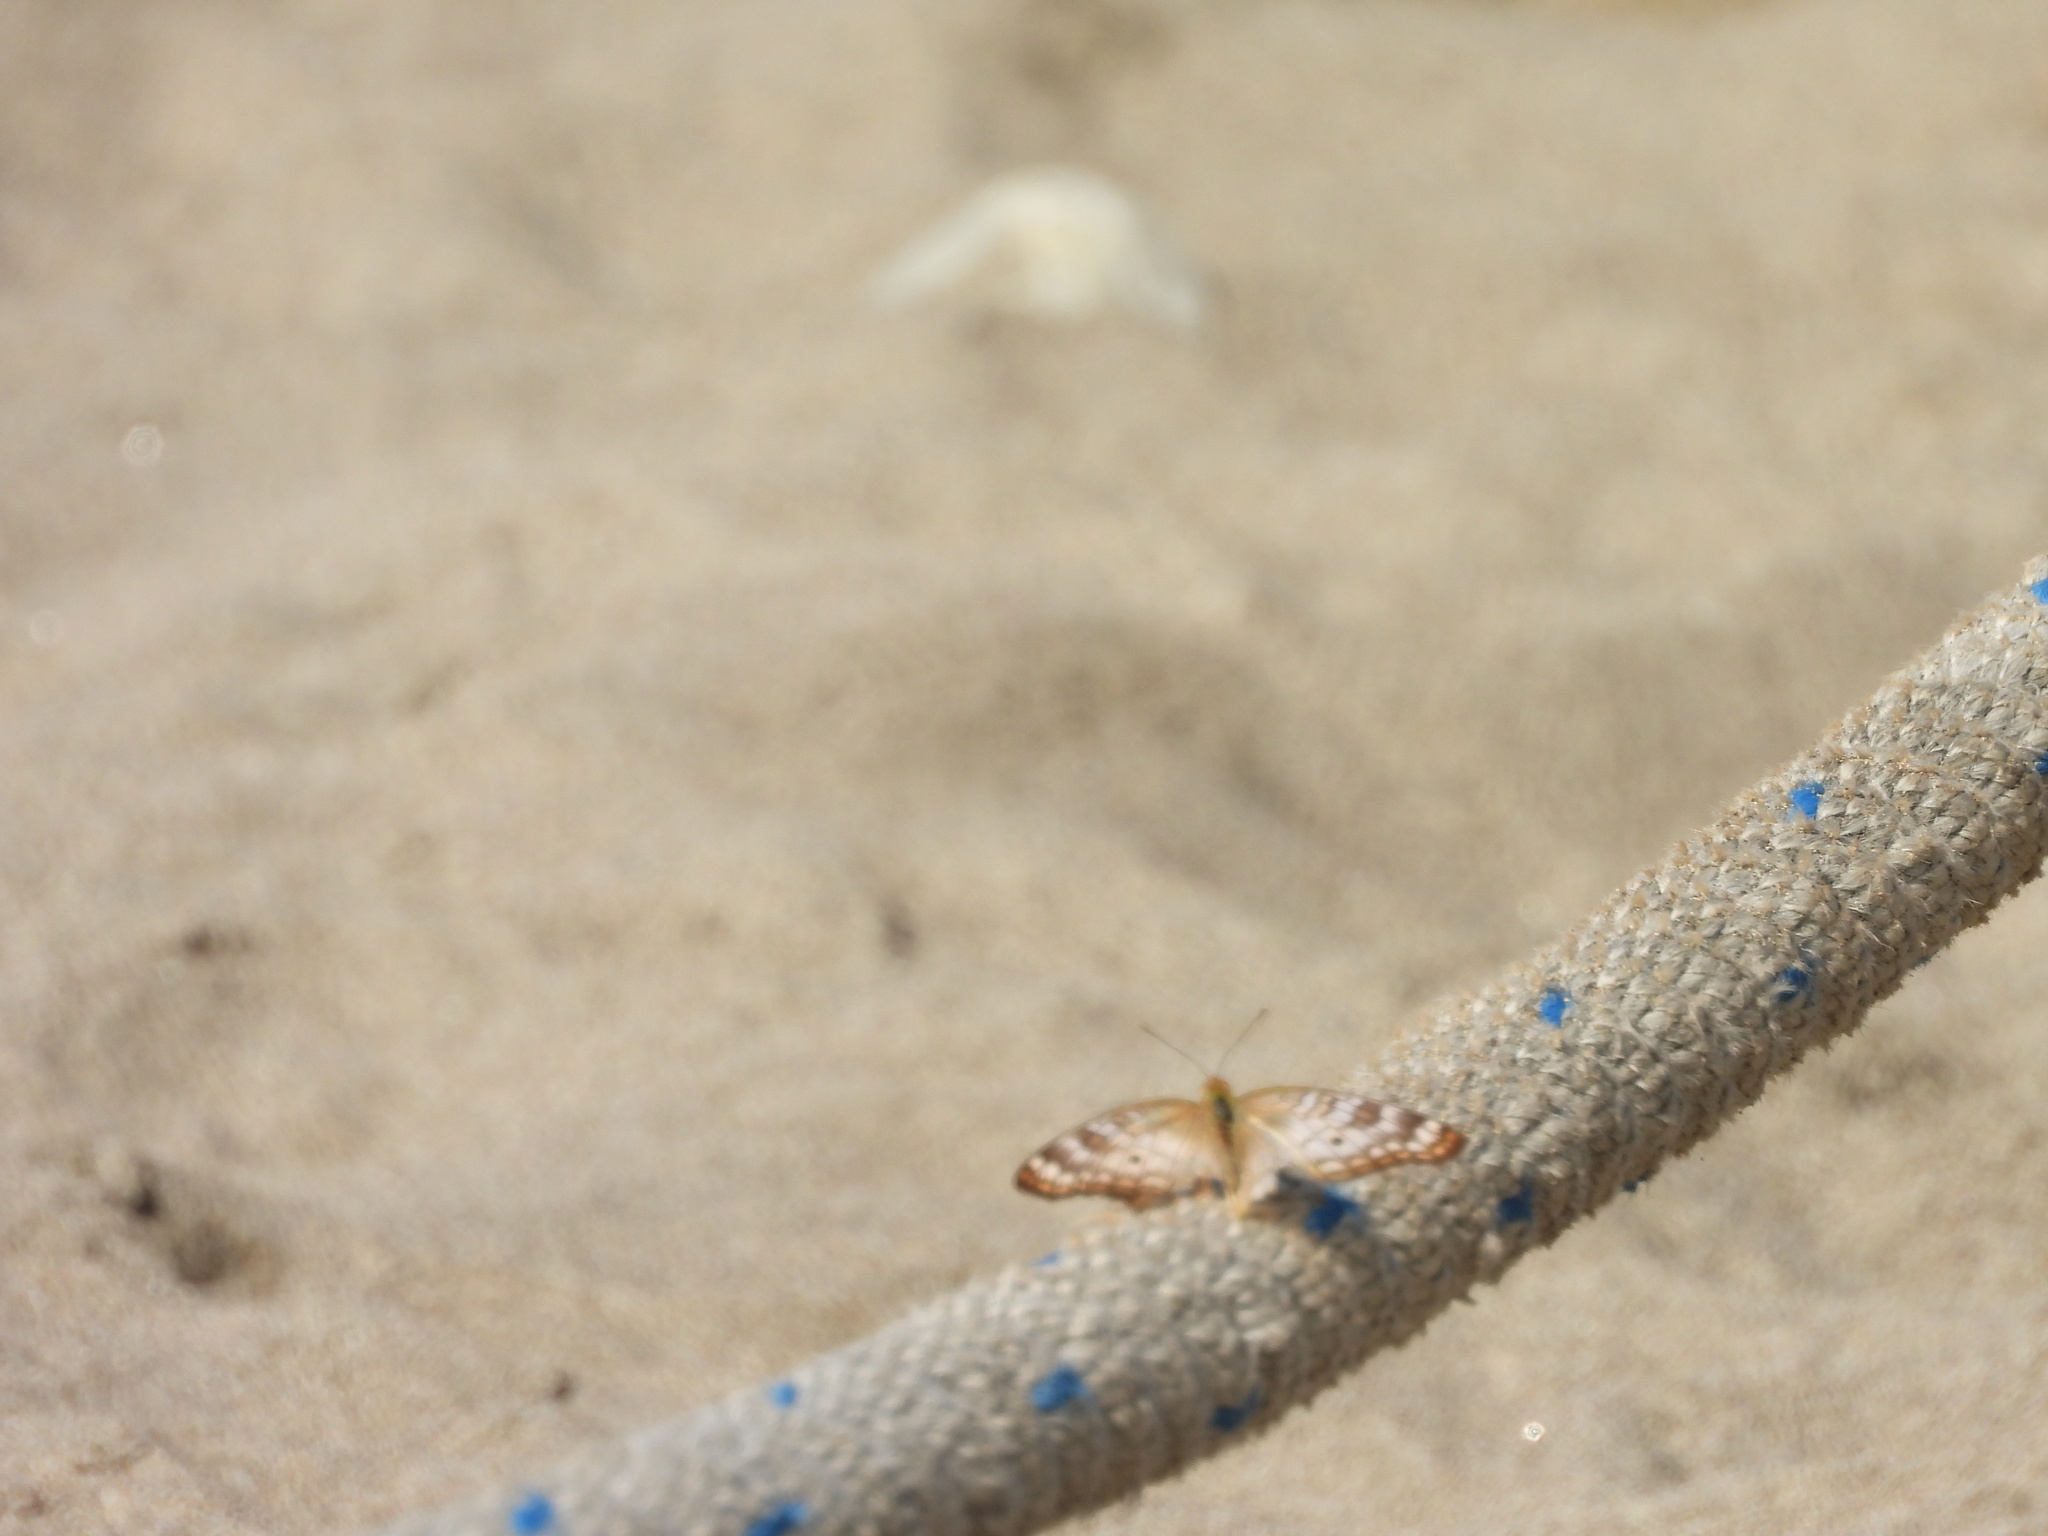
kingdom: Animalia
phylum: Arthropoda
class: Insecta
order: Lepidoptera
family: Nymphalidae
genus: Anartia
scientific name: Anartia jatrophae
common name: White peacock
